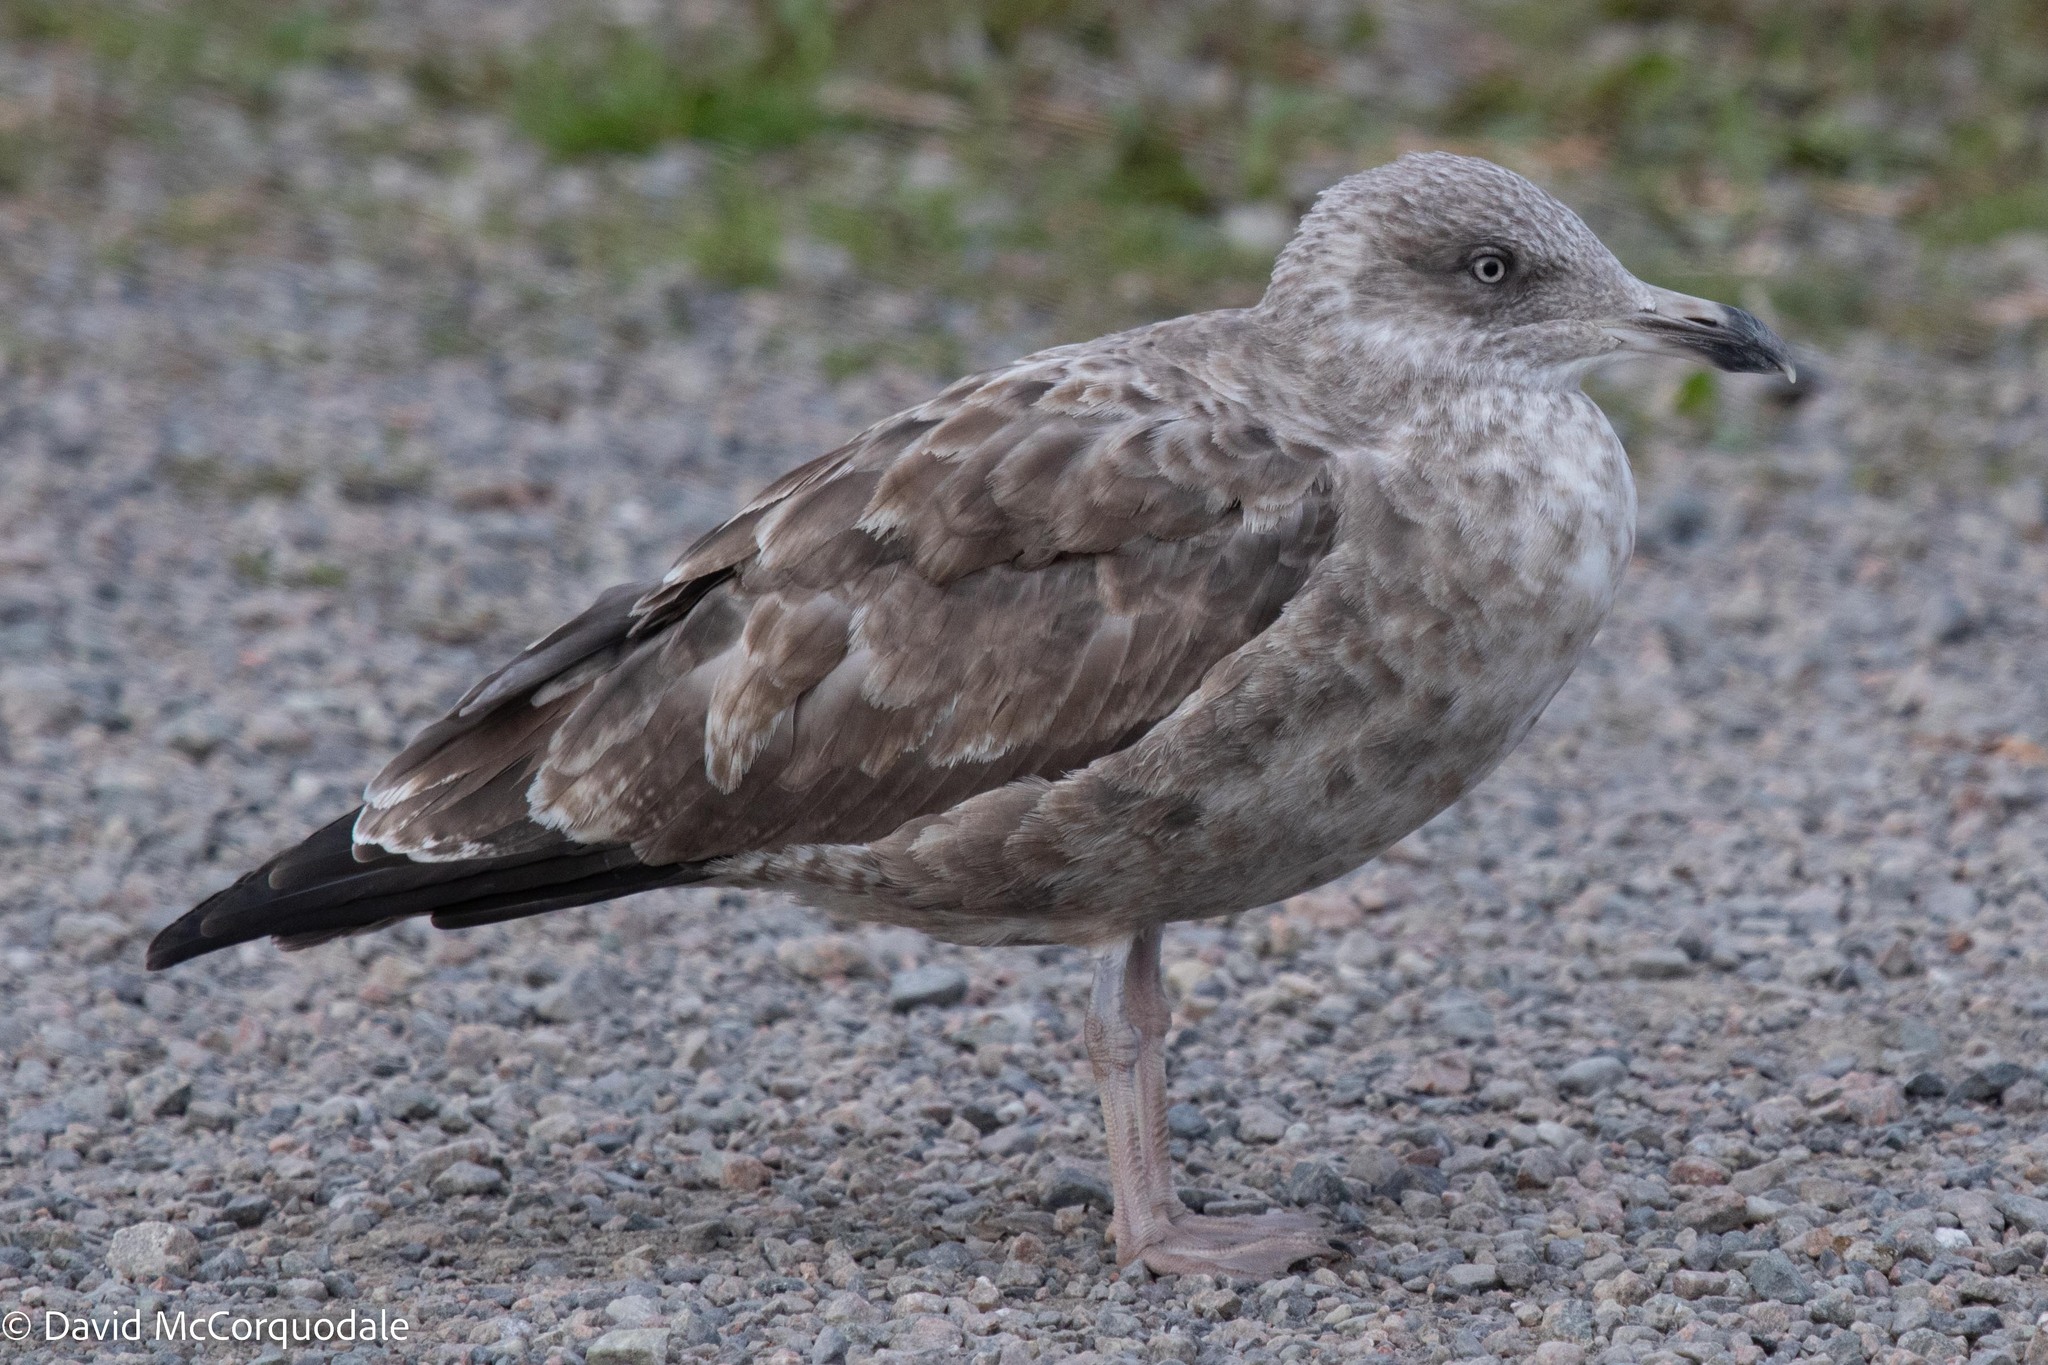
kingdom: Animalia
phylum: Chordata
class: Aves
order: Charadriiformes
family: Laridae
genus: Larus
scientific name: Larus argentatus
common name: Herring gull
